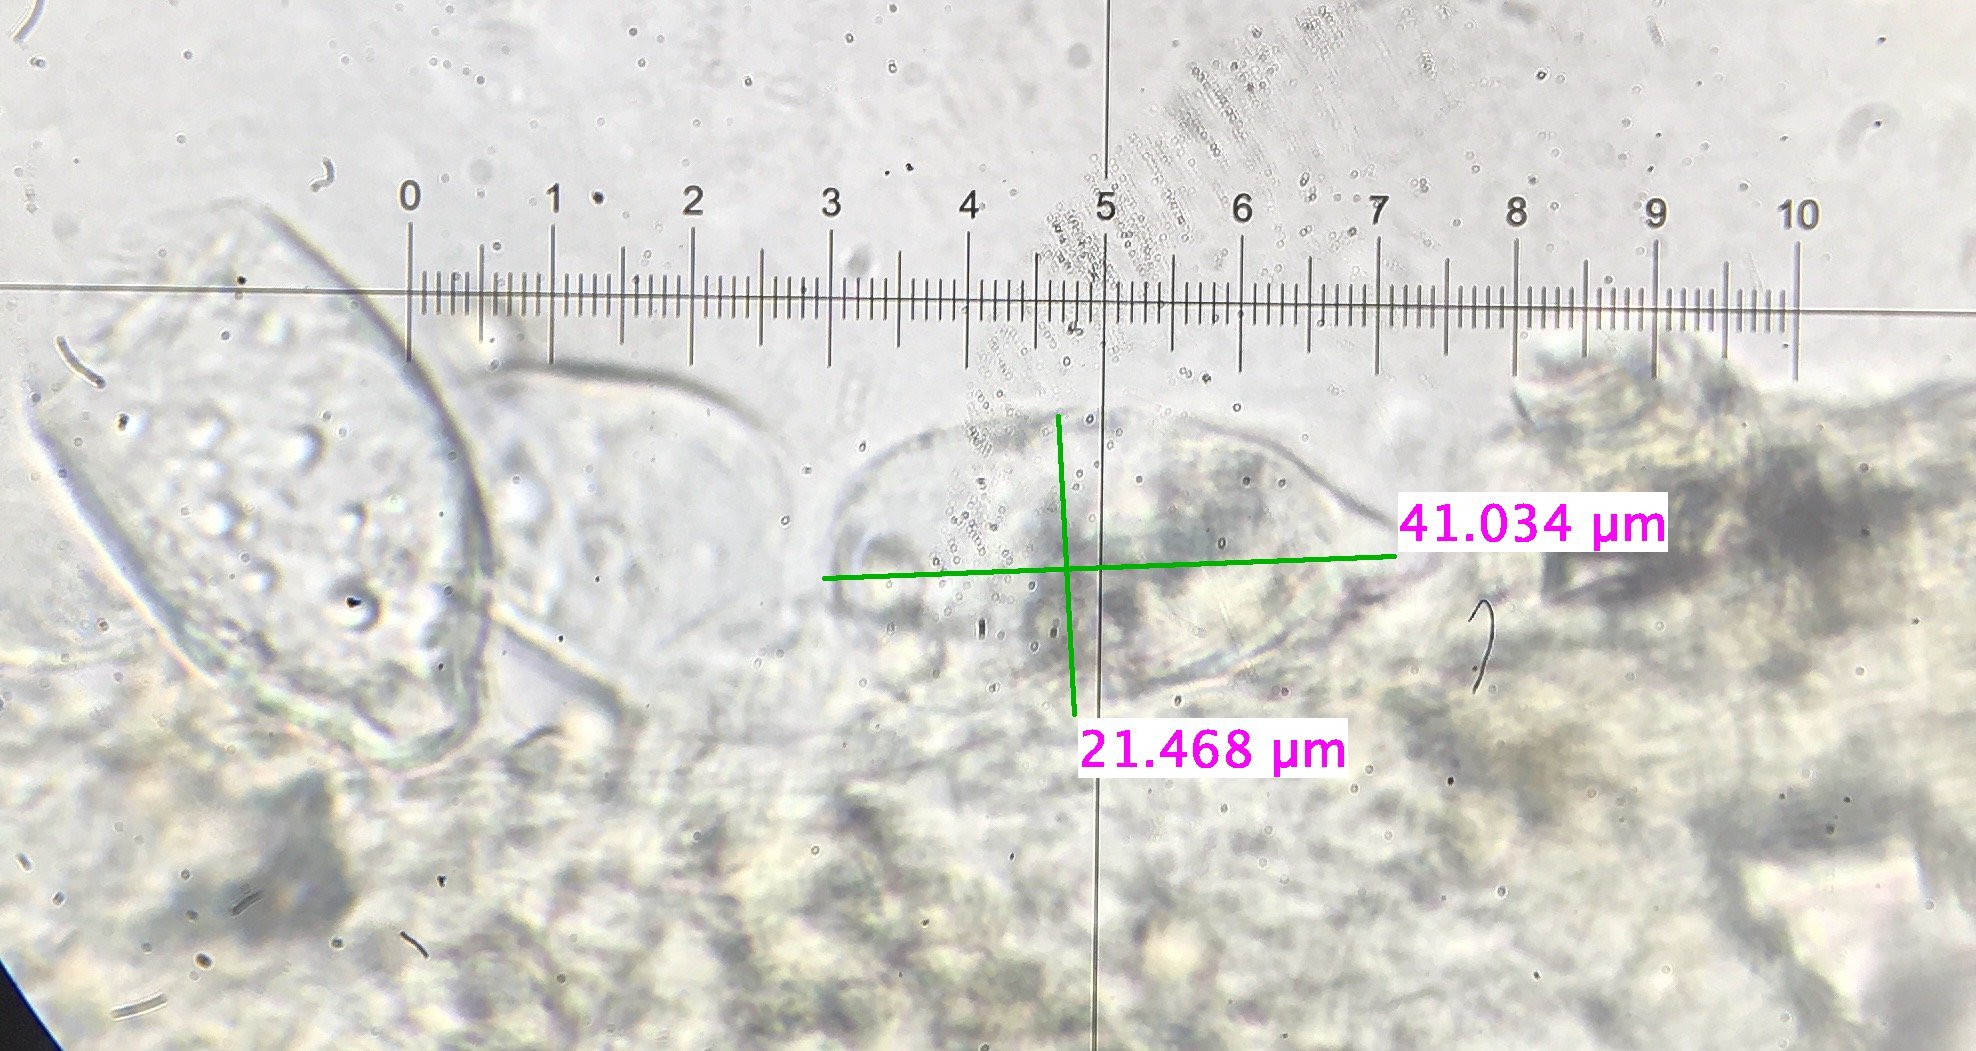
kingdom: Fungi
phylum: Basidiomycota
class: Agaricomycetes
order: Agaricales
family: Pluteaceae
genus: Pluteus
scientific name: Pluteus vellingae
